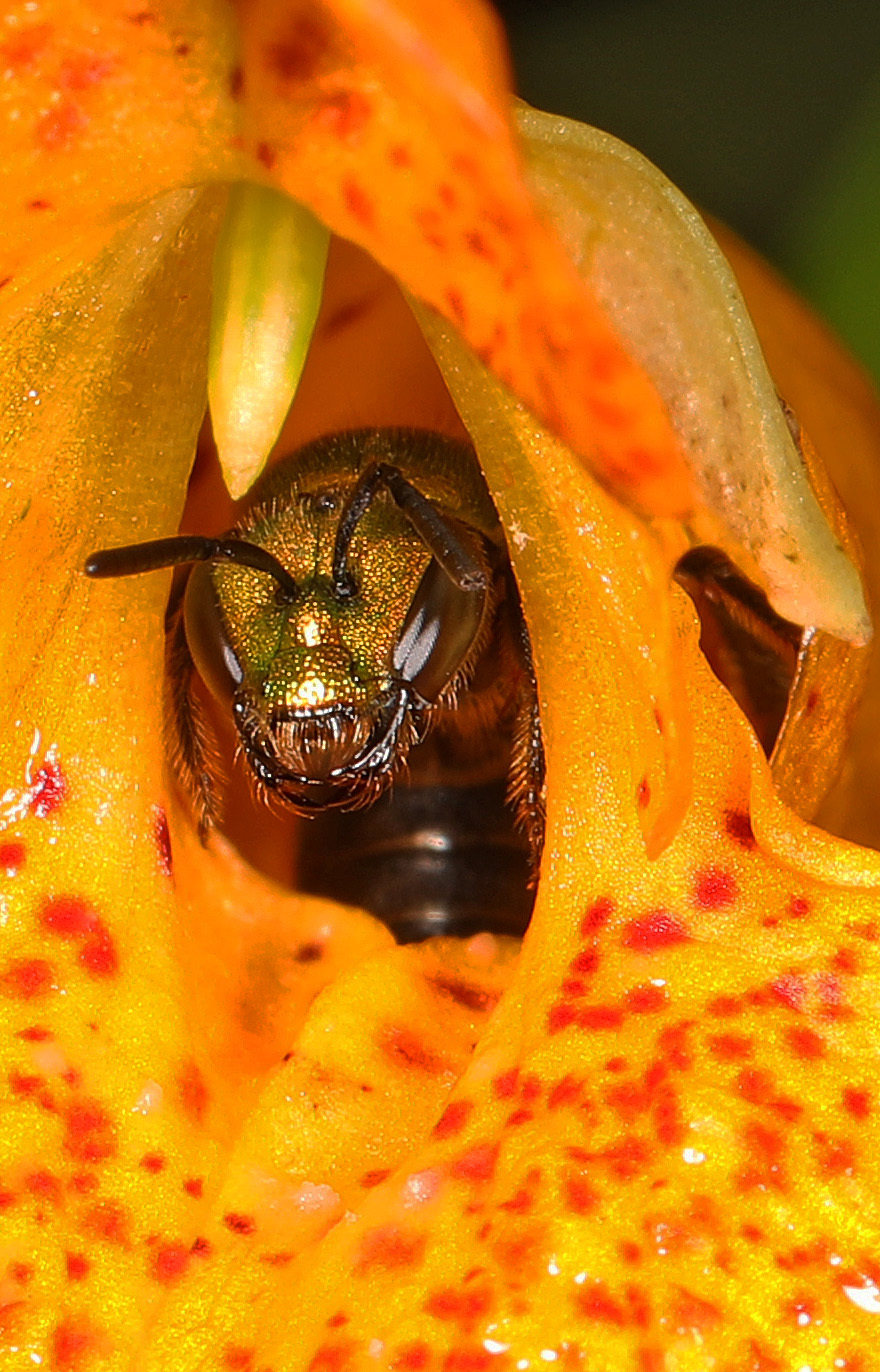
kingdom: Animalia
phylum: Arthropoda
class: Insecta
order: Hymenoptera
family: Halictidae
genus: Augochlora
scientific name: Augochlora pura
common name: Pure green sweat bee
